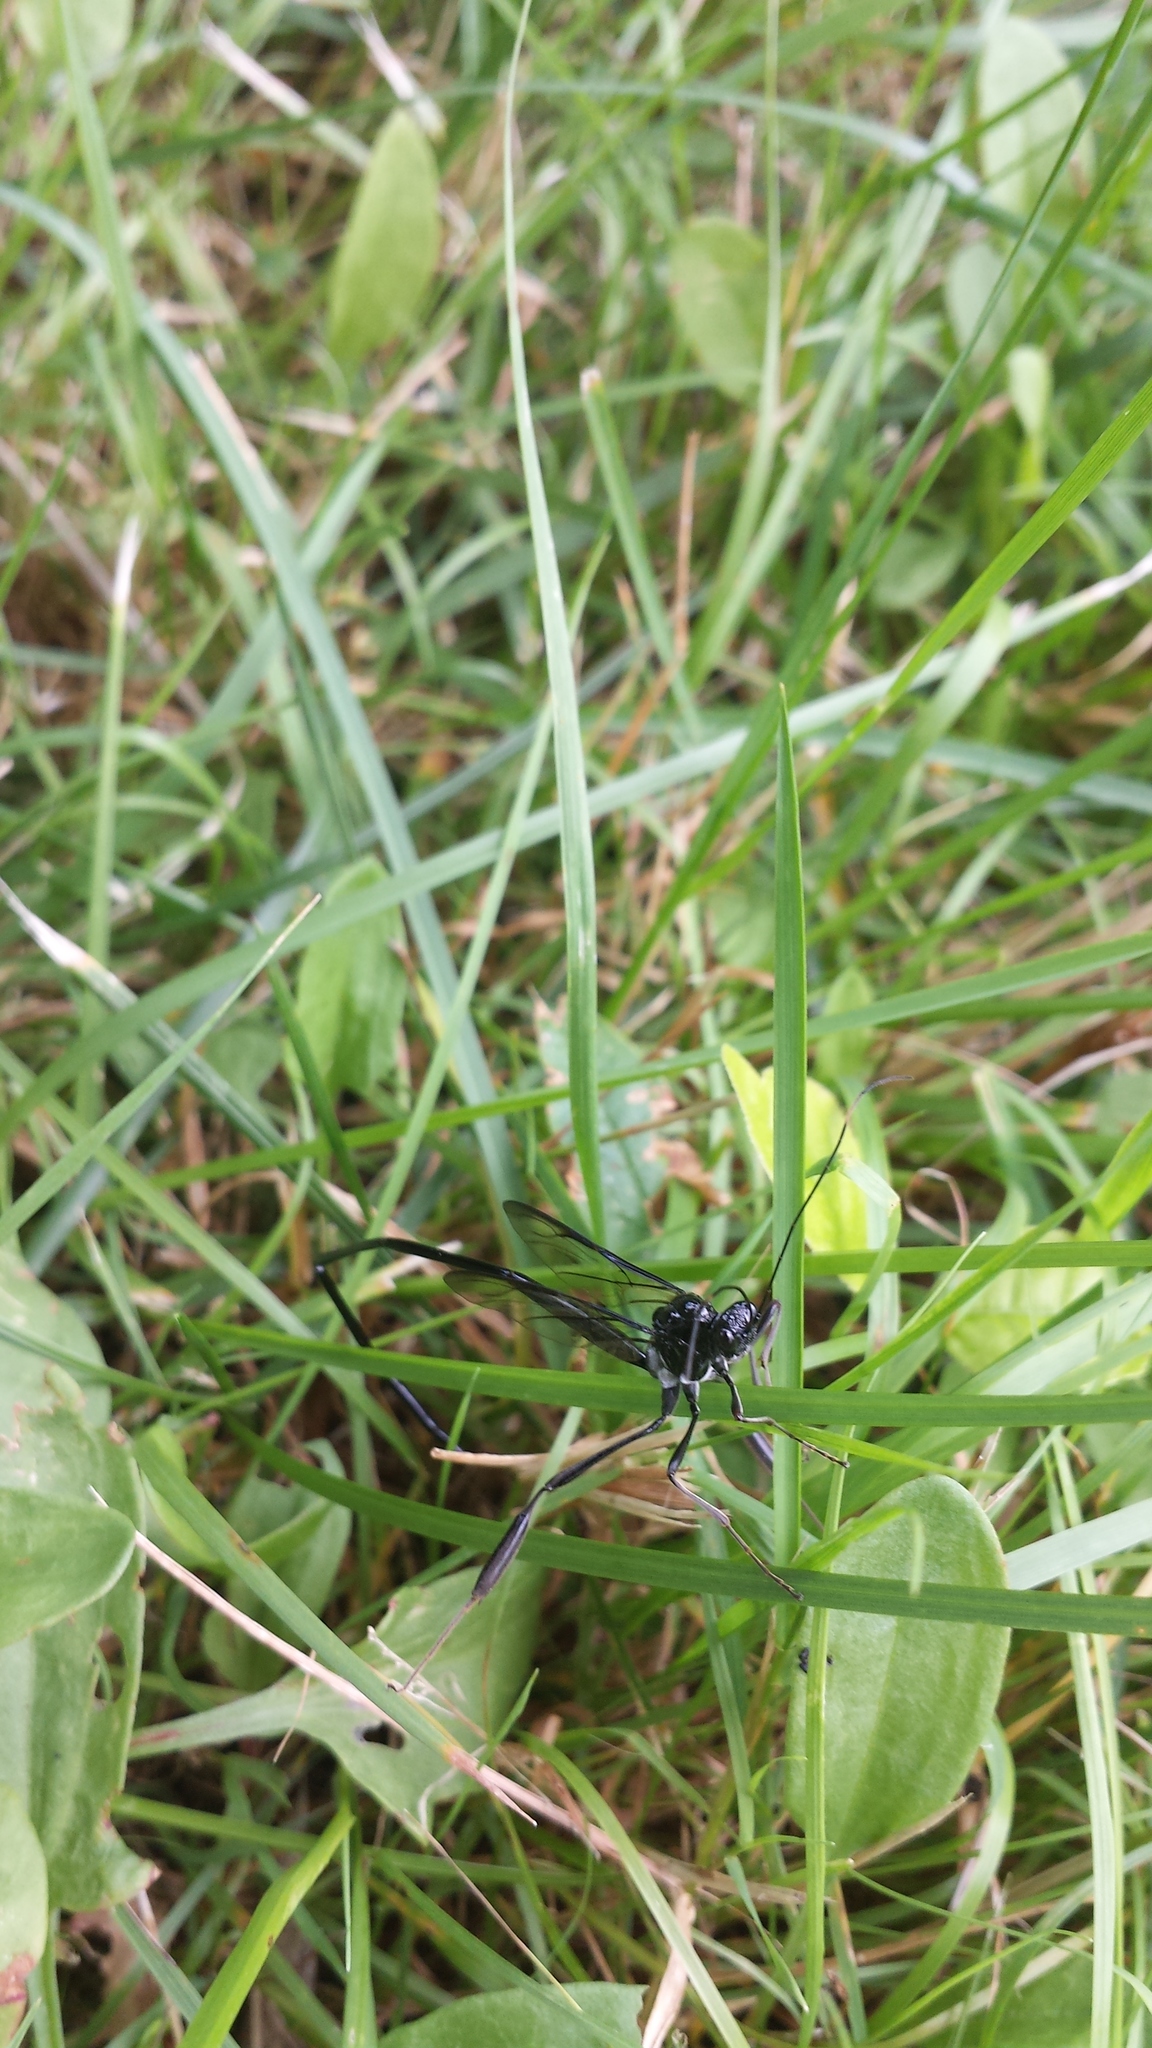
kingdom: Animalia
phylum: Arthropoda
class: Insecta
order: Hymenoptera
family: Pelecinidae
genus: Pelecinus
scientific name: Pelecinus polyturator
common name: American pelecinid wasp
